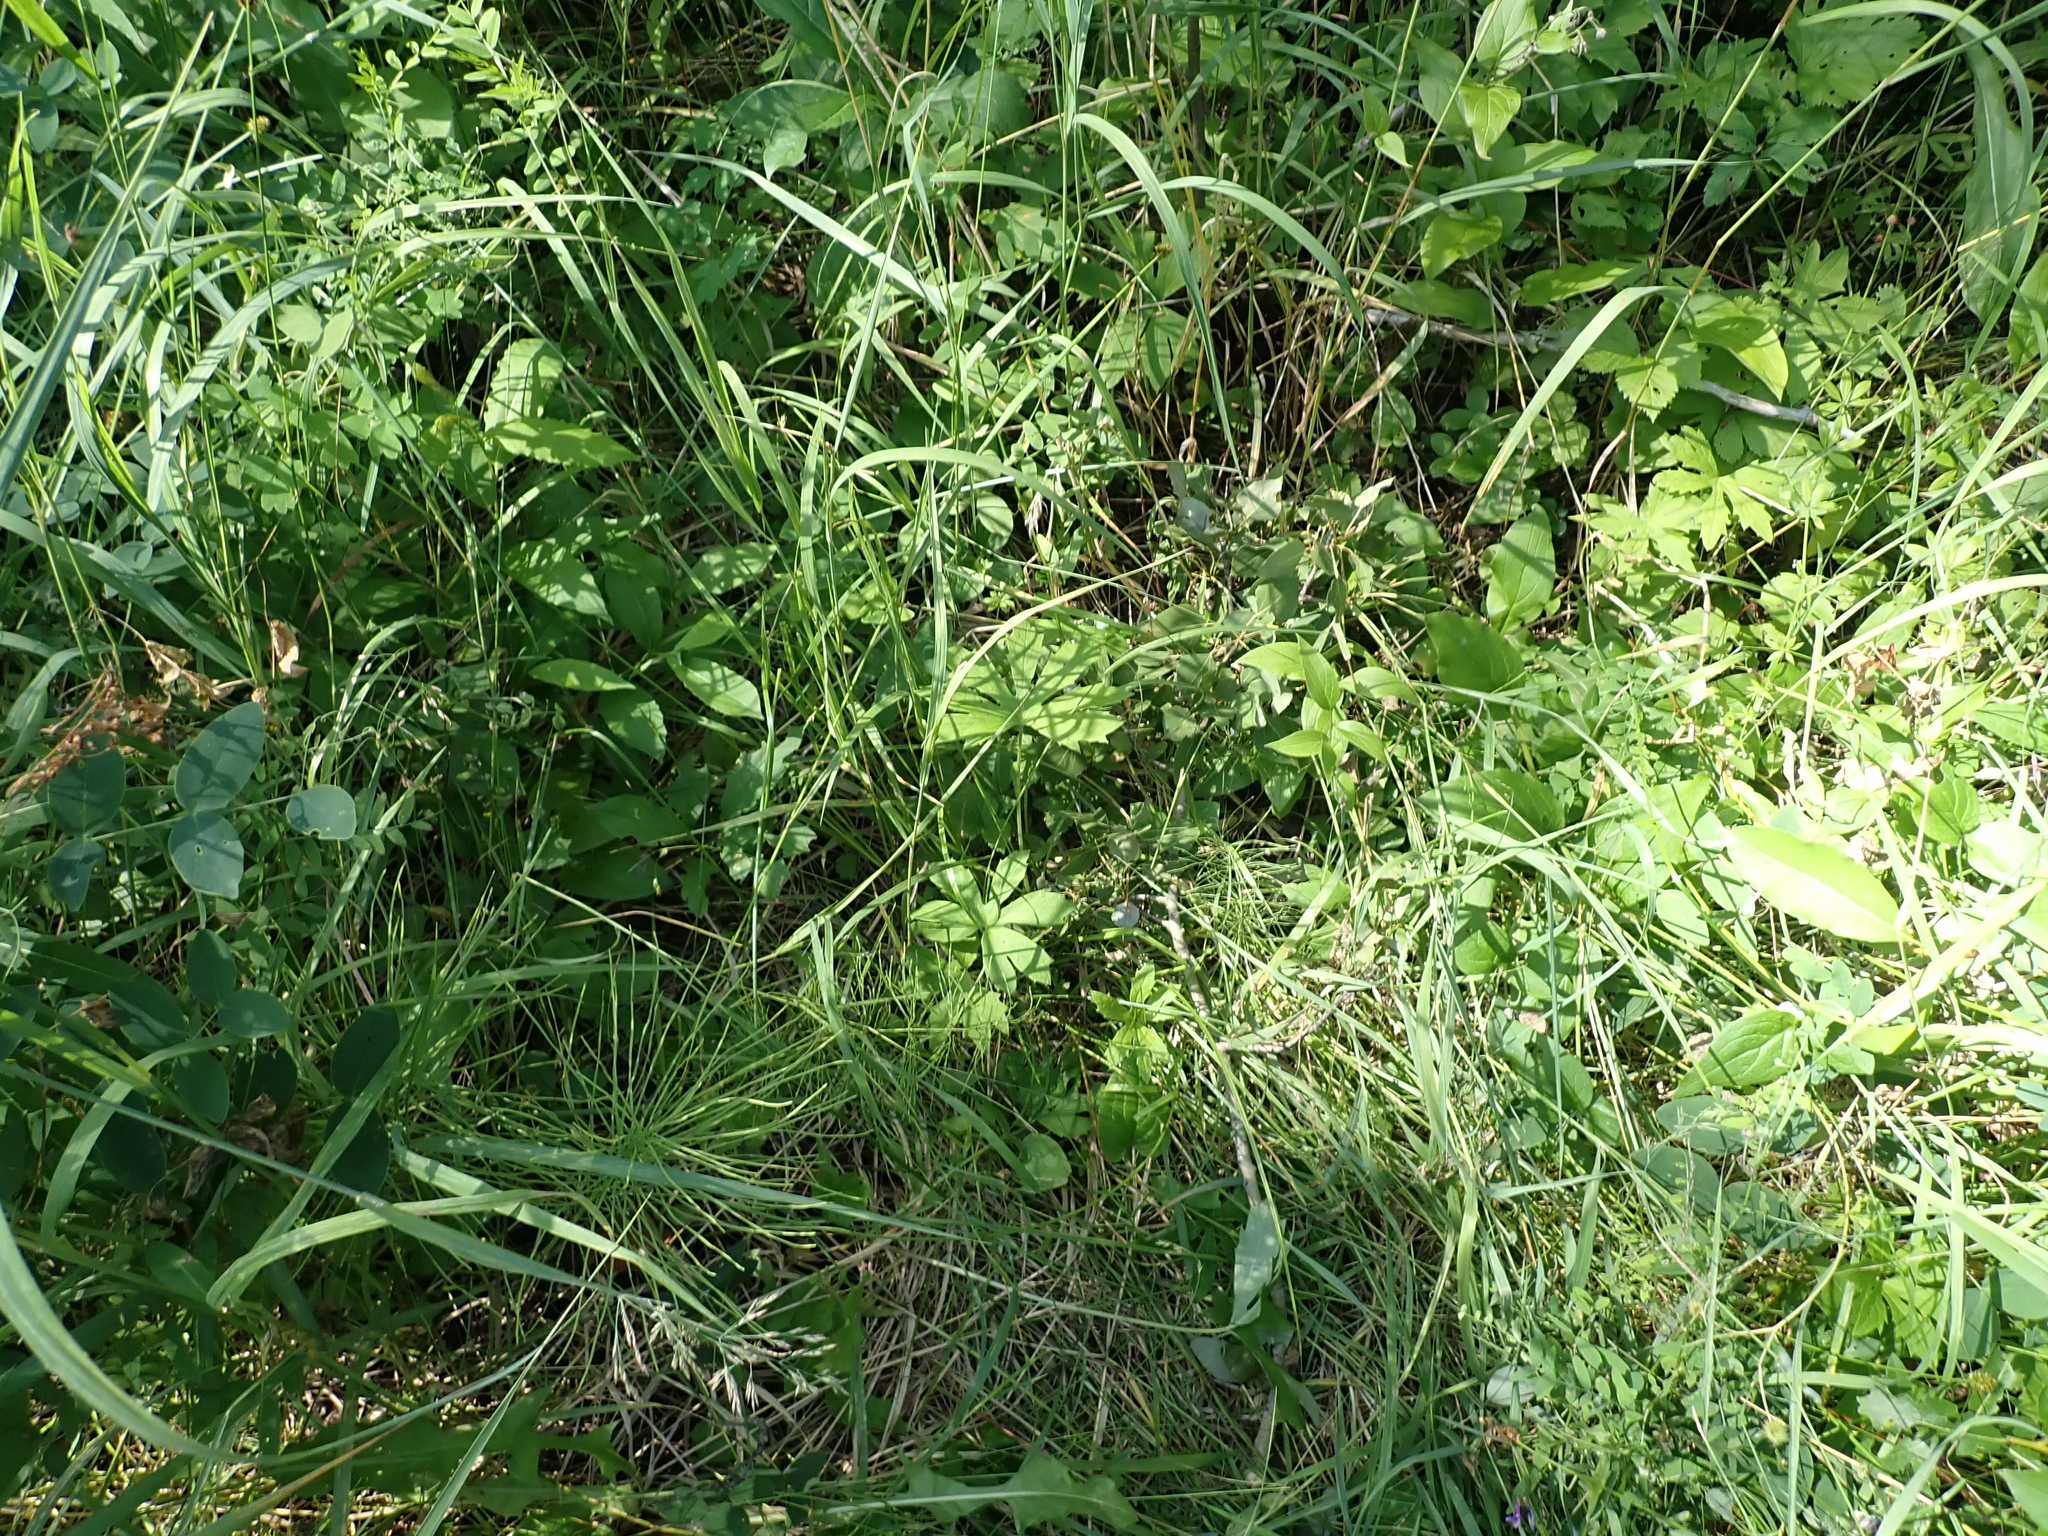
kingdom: Plantae
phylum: Tracheophyta
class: Magnoliopsida
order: Asterales
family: Asteraceae
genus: Petasites
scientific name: Petasites frigidus
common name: Arctic butterbur
